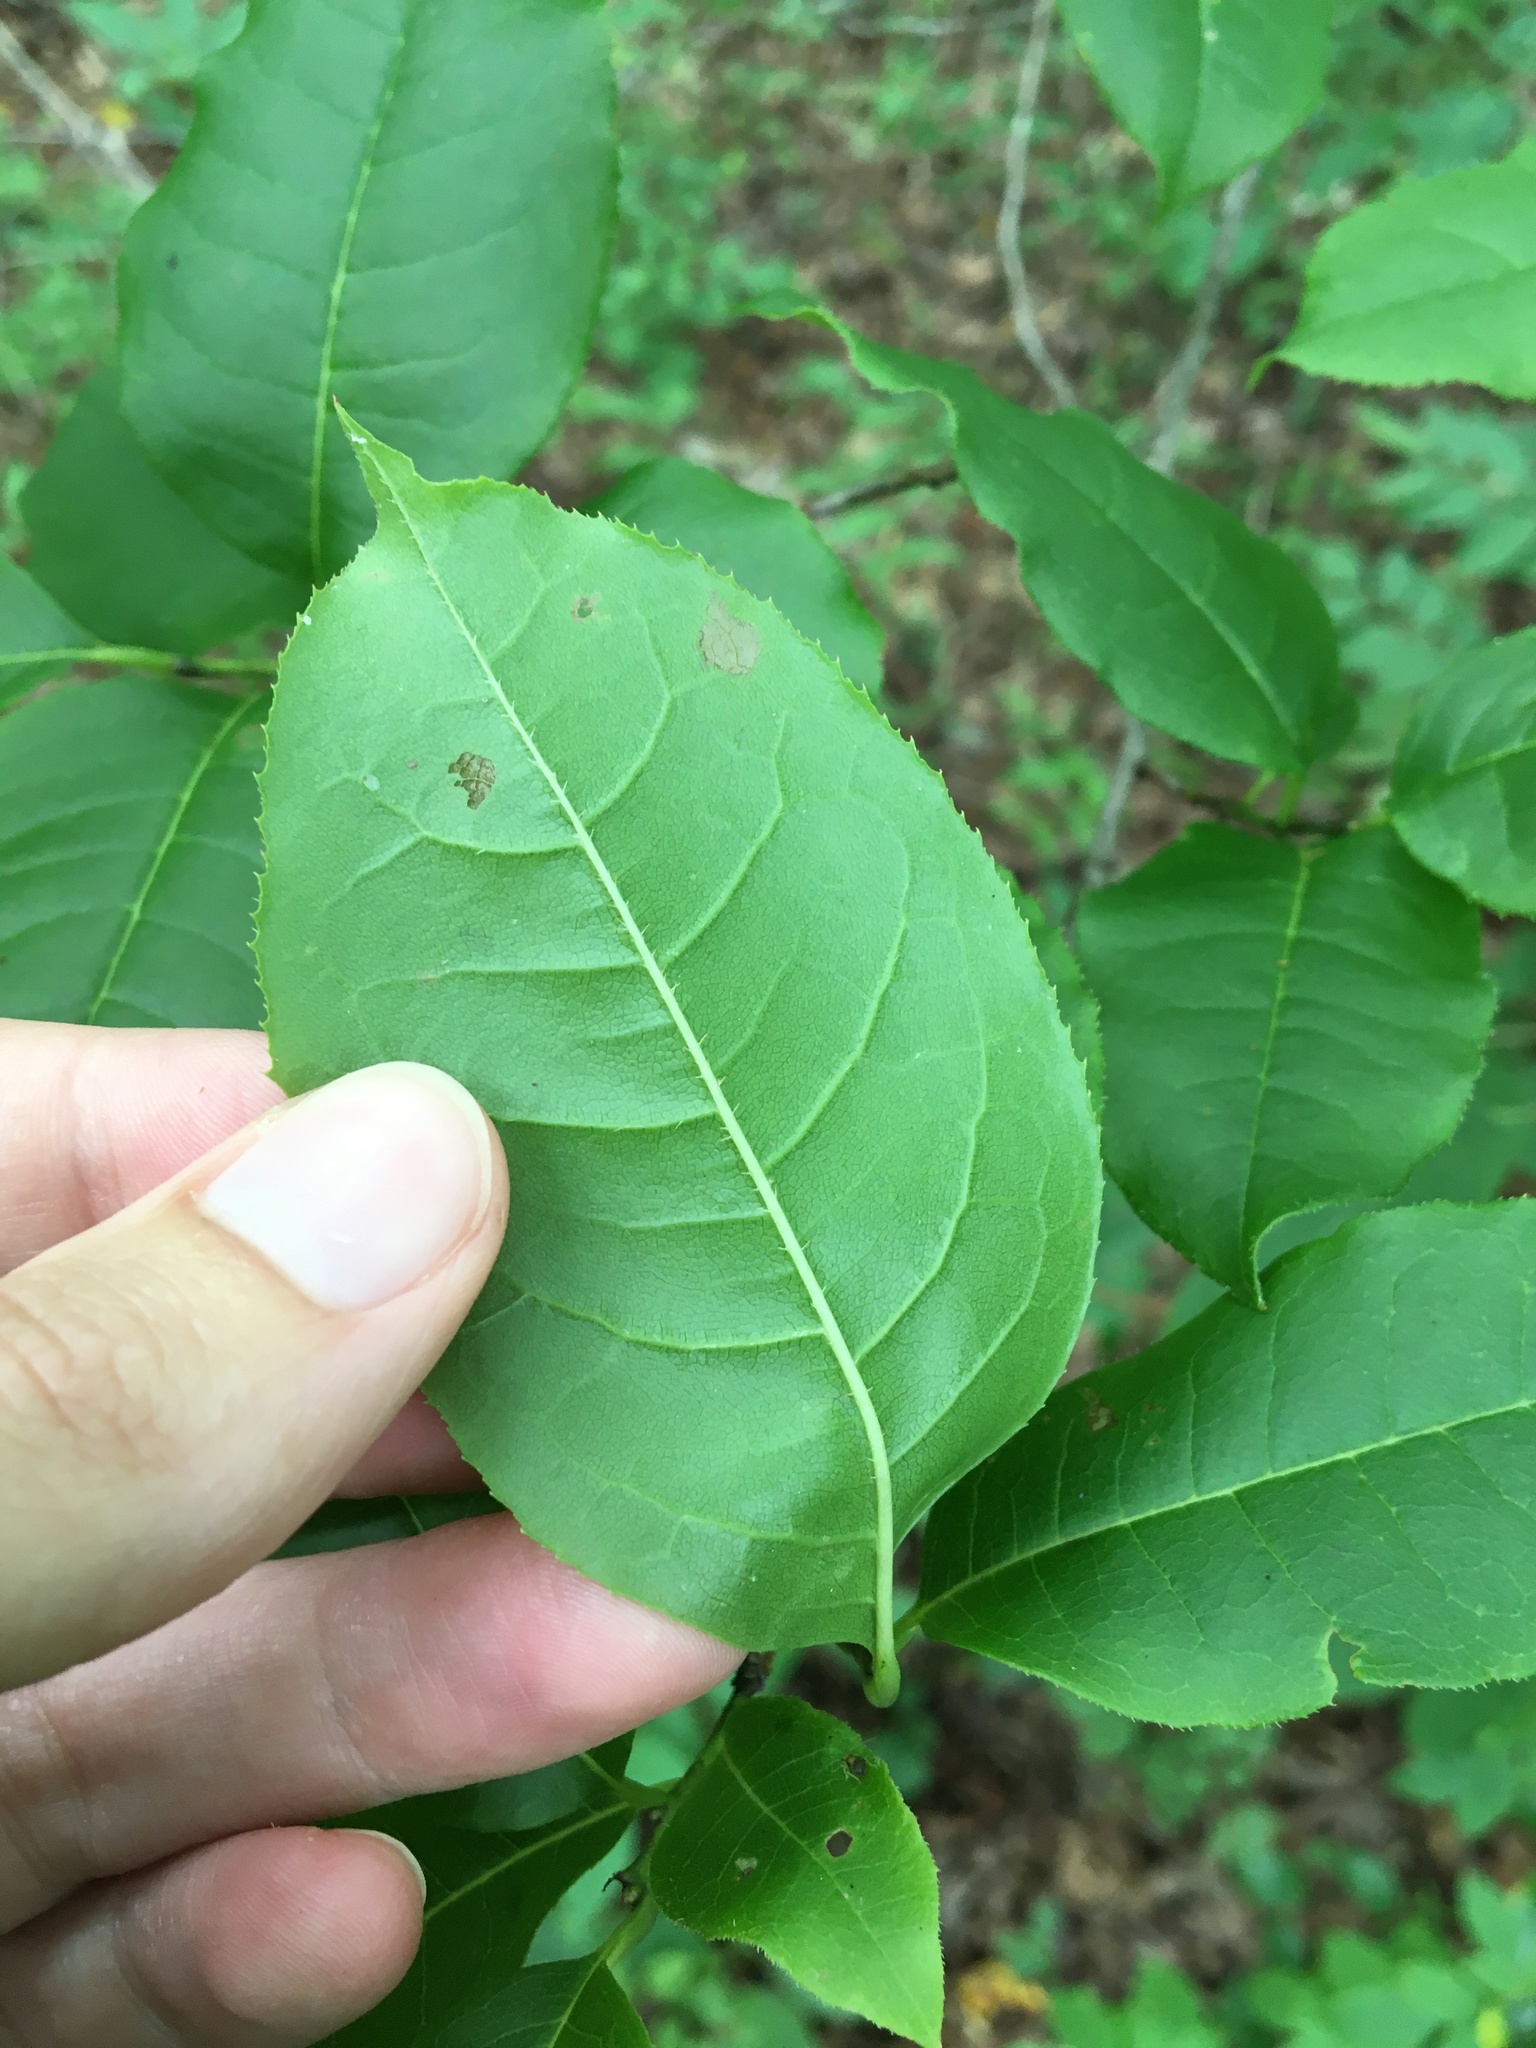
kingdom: Plantae
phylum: Tracheophyta
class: Magnoliopsida
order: Ericales
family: Ericaceae
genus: Oxydendrum
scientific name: Oxydendrum arboreum
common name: Sourwood
